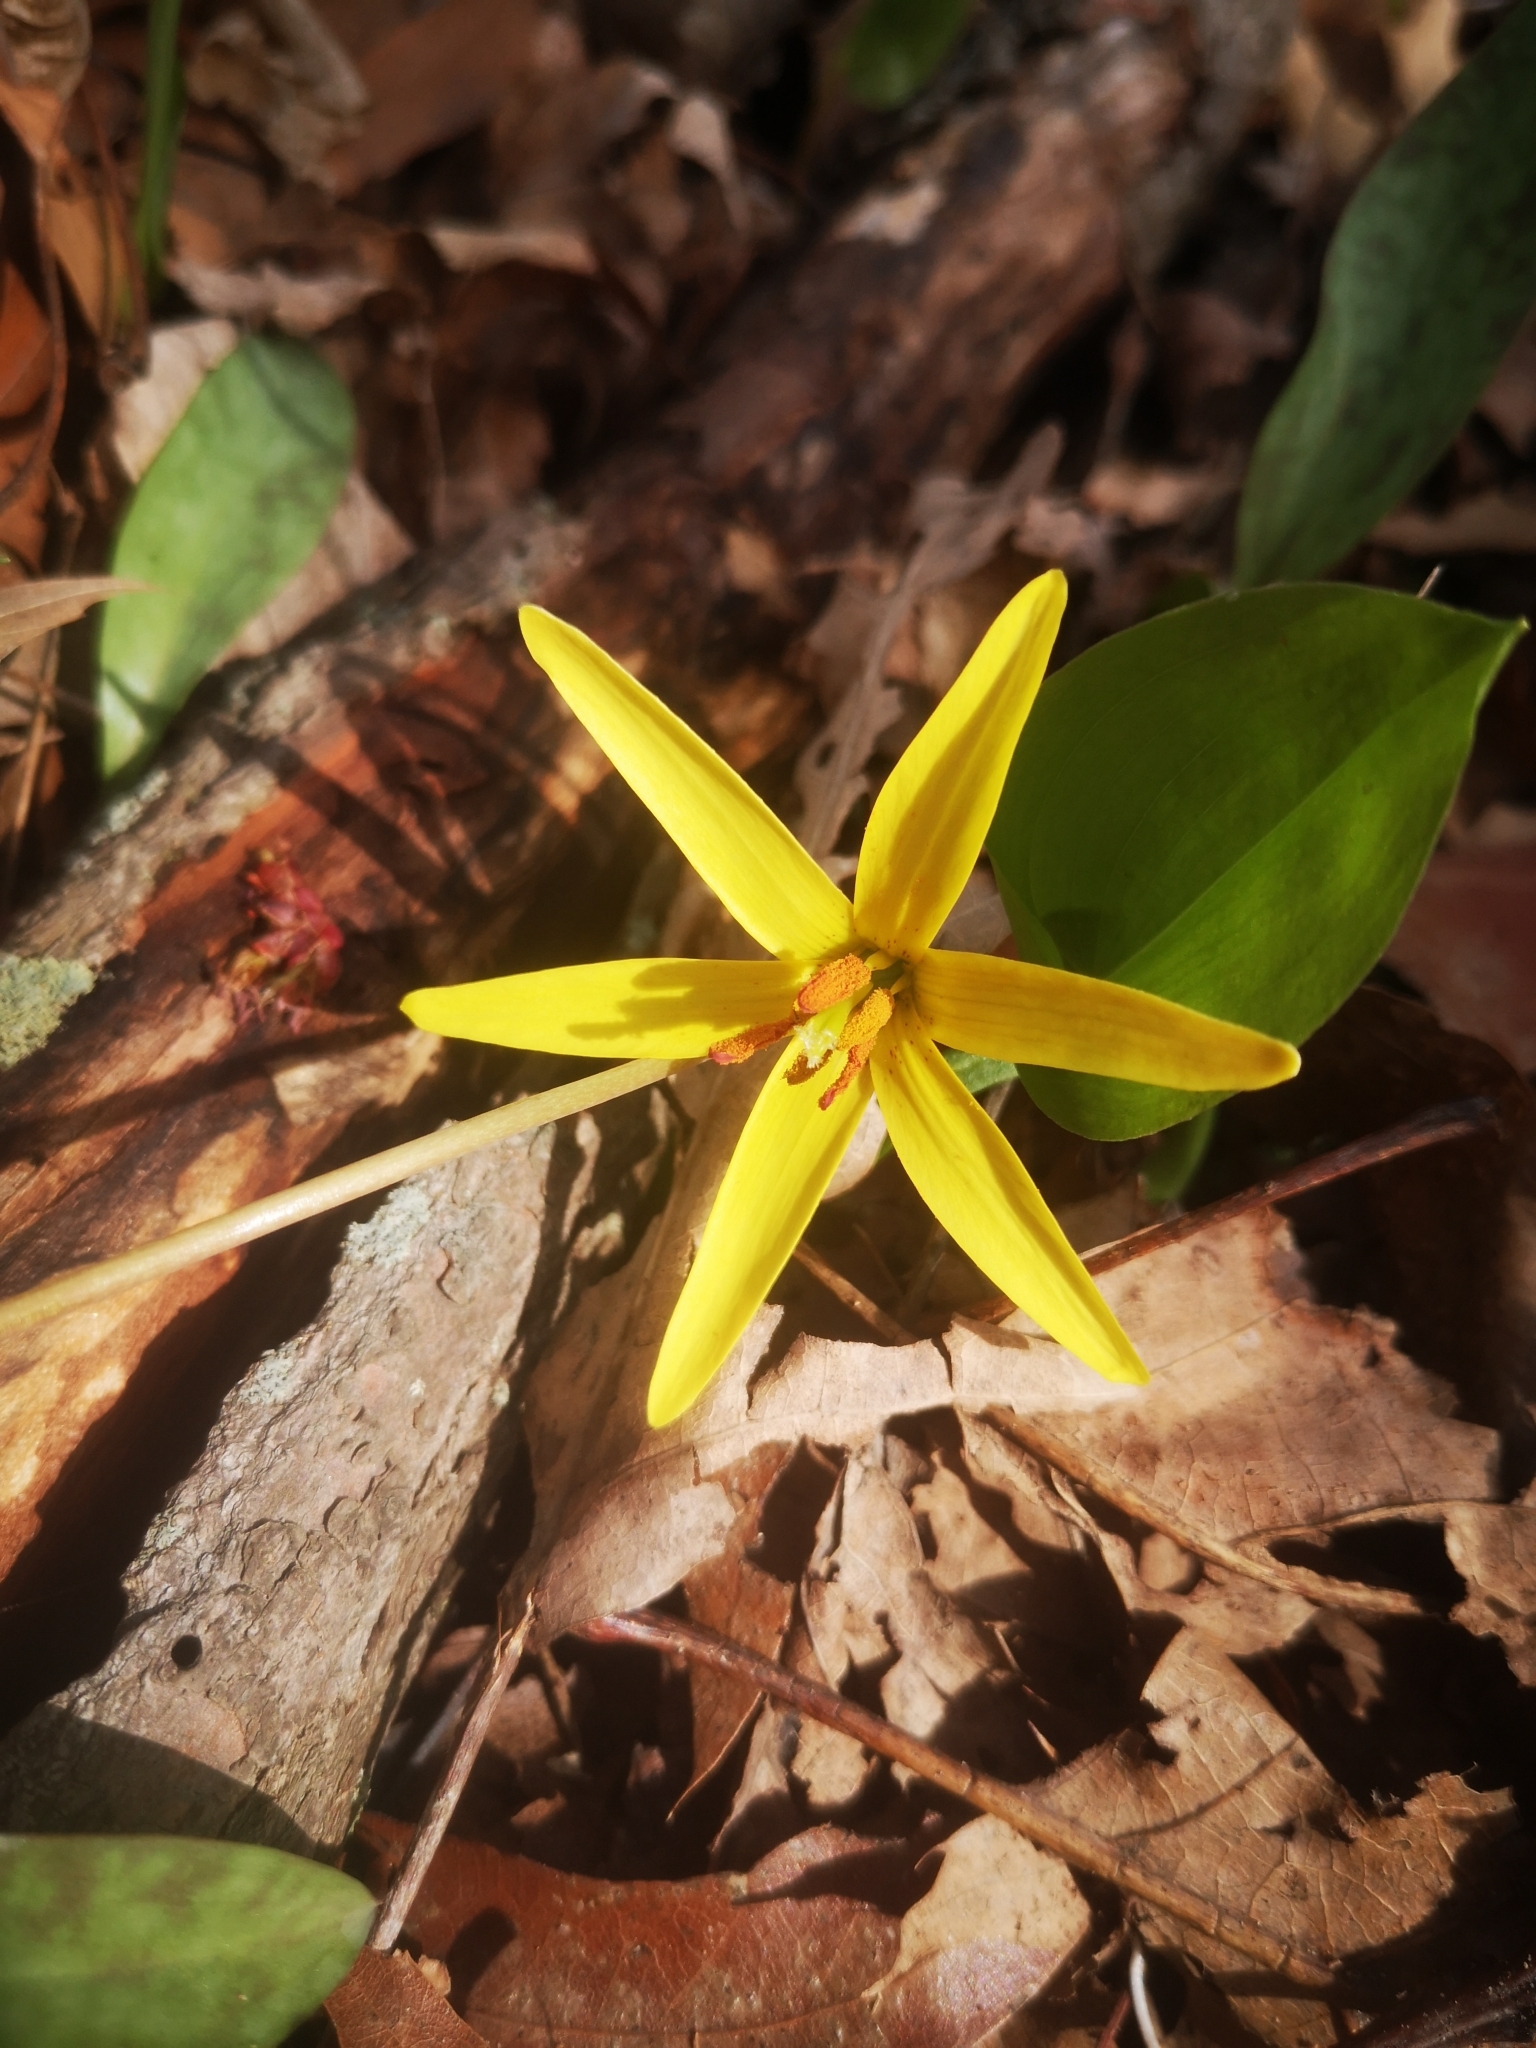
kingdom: Plantae
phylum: Tracheophyta
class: Liliopsida
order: Liliales
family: Liliaceae
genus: Erythronium
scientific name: Erythronium americanum
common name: Yellow adder's-tongue
